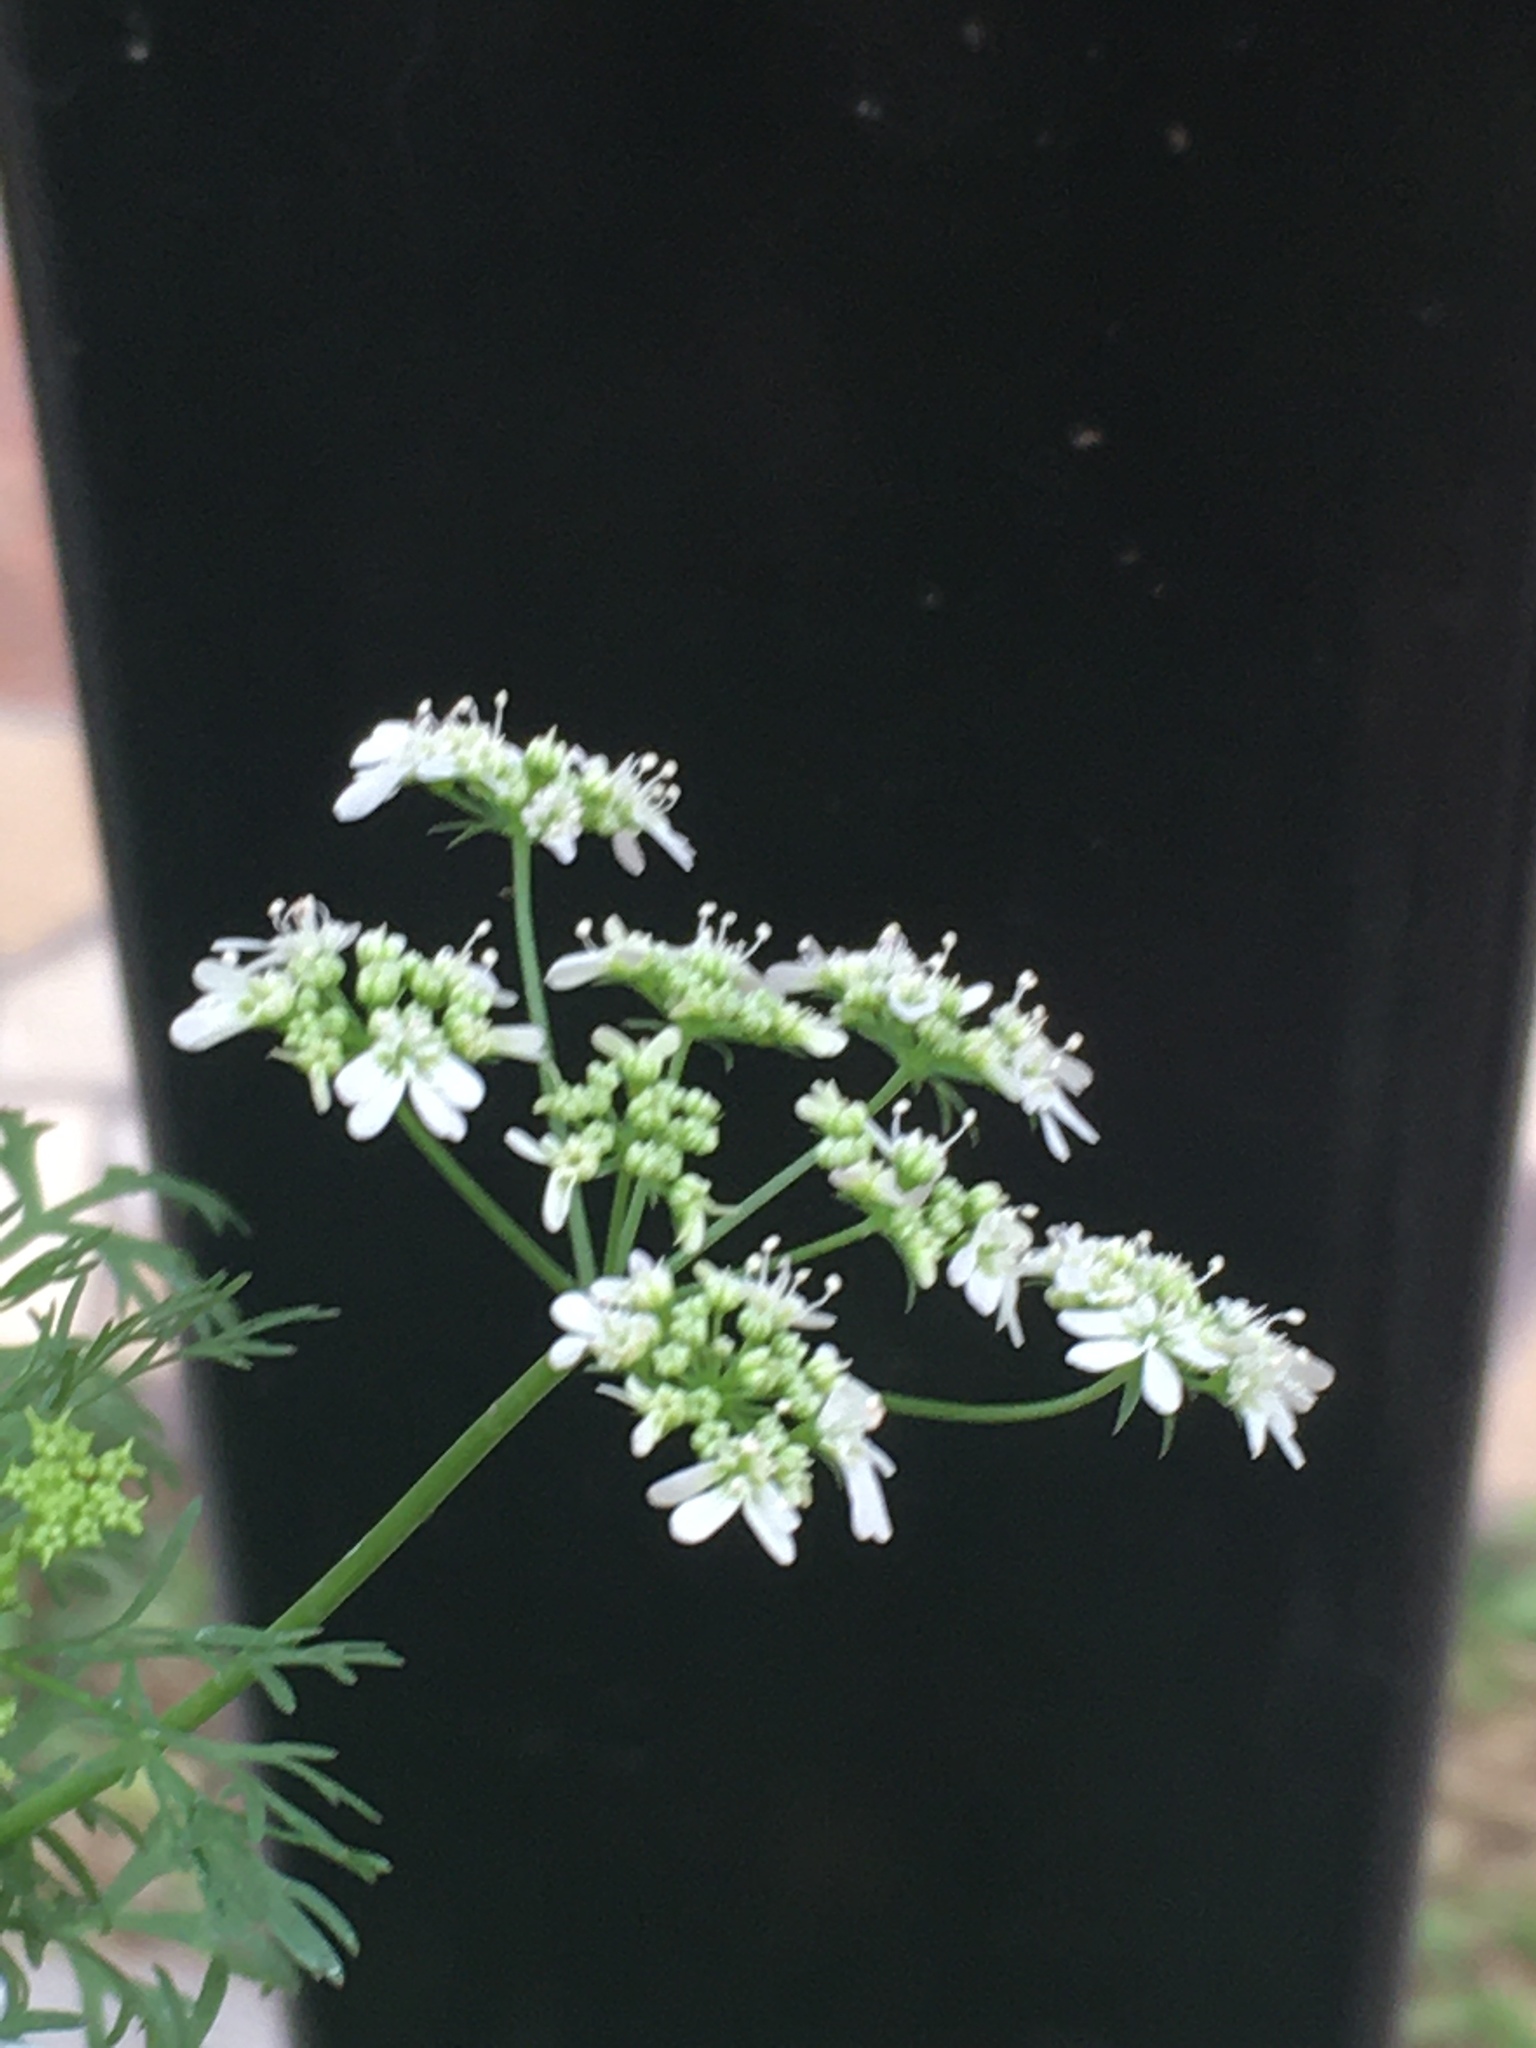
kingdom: Plantae
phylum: Tracheophyta
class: Magnoliopsida
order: Apiales
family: Apiaceae
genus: Coriandrum
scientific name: Coriandrum sativum
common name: Coriander
